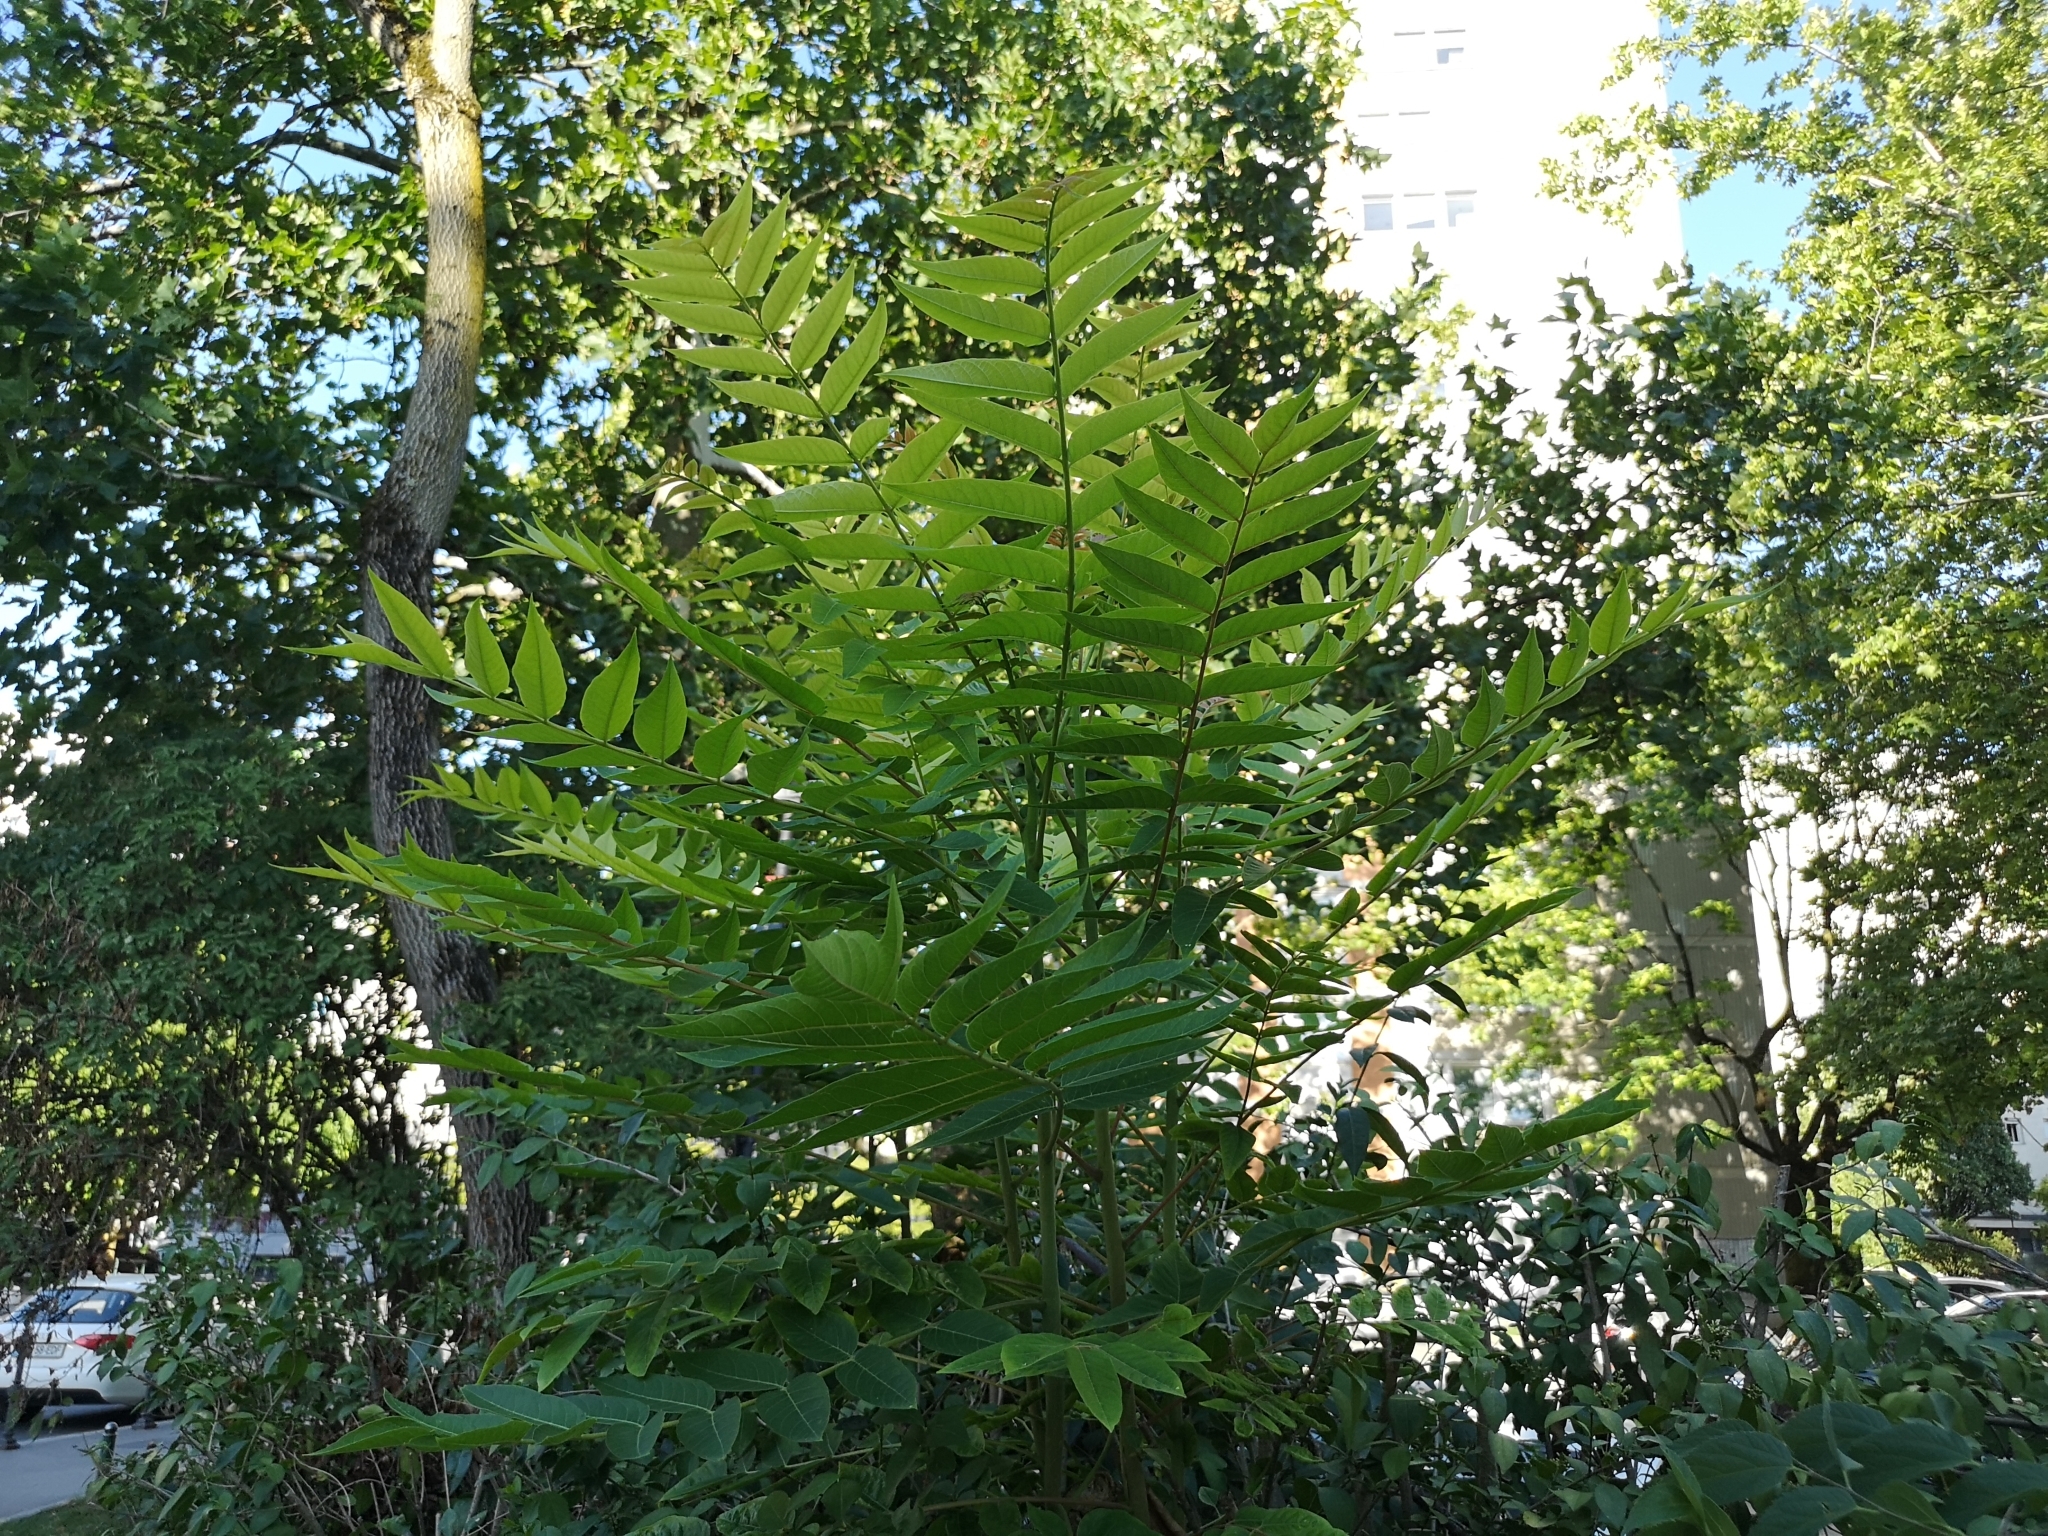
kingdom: Plantae
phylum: Tracheophyta
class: Magnoliopsida
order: Sapindales
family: Simaroubaceae
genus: Ailanthus
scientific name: Ailanthus altissima
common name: Tree-of-heaven
